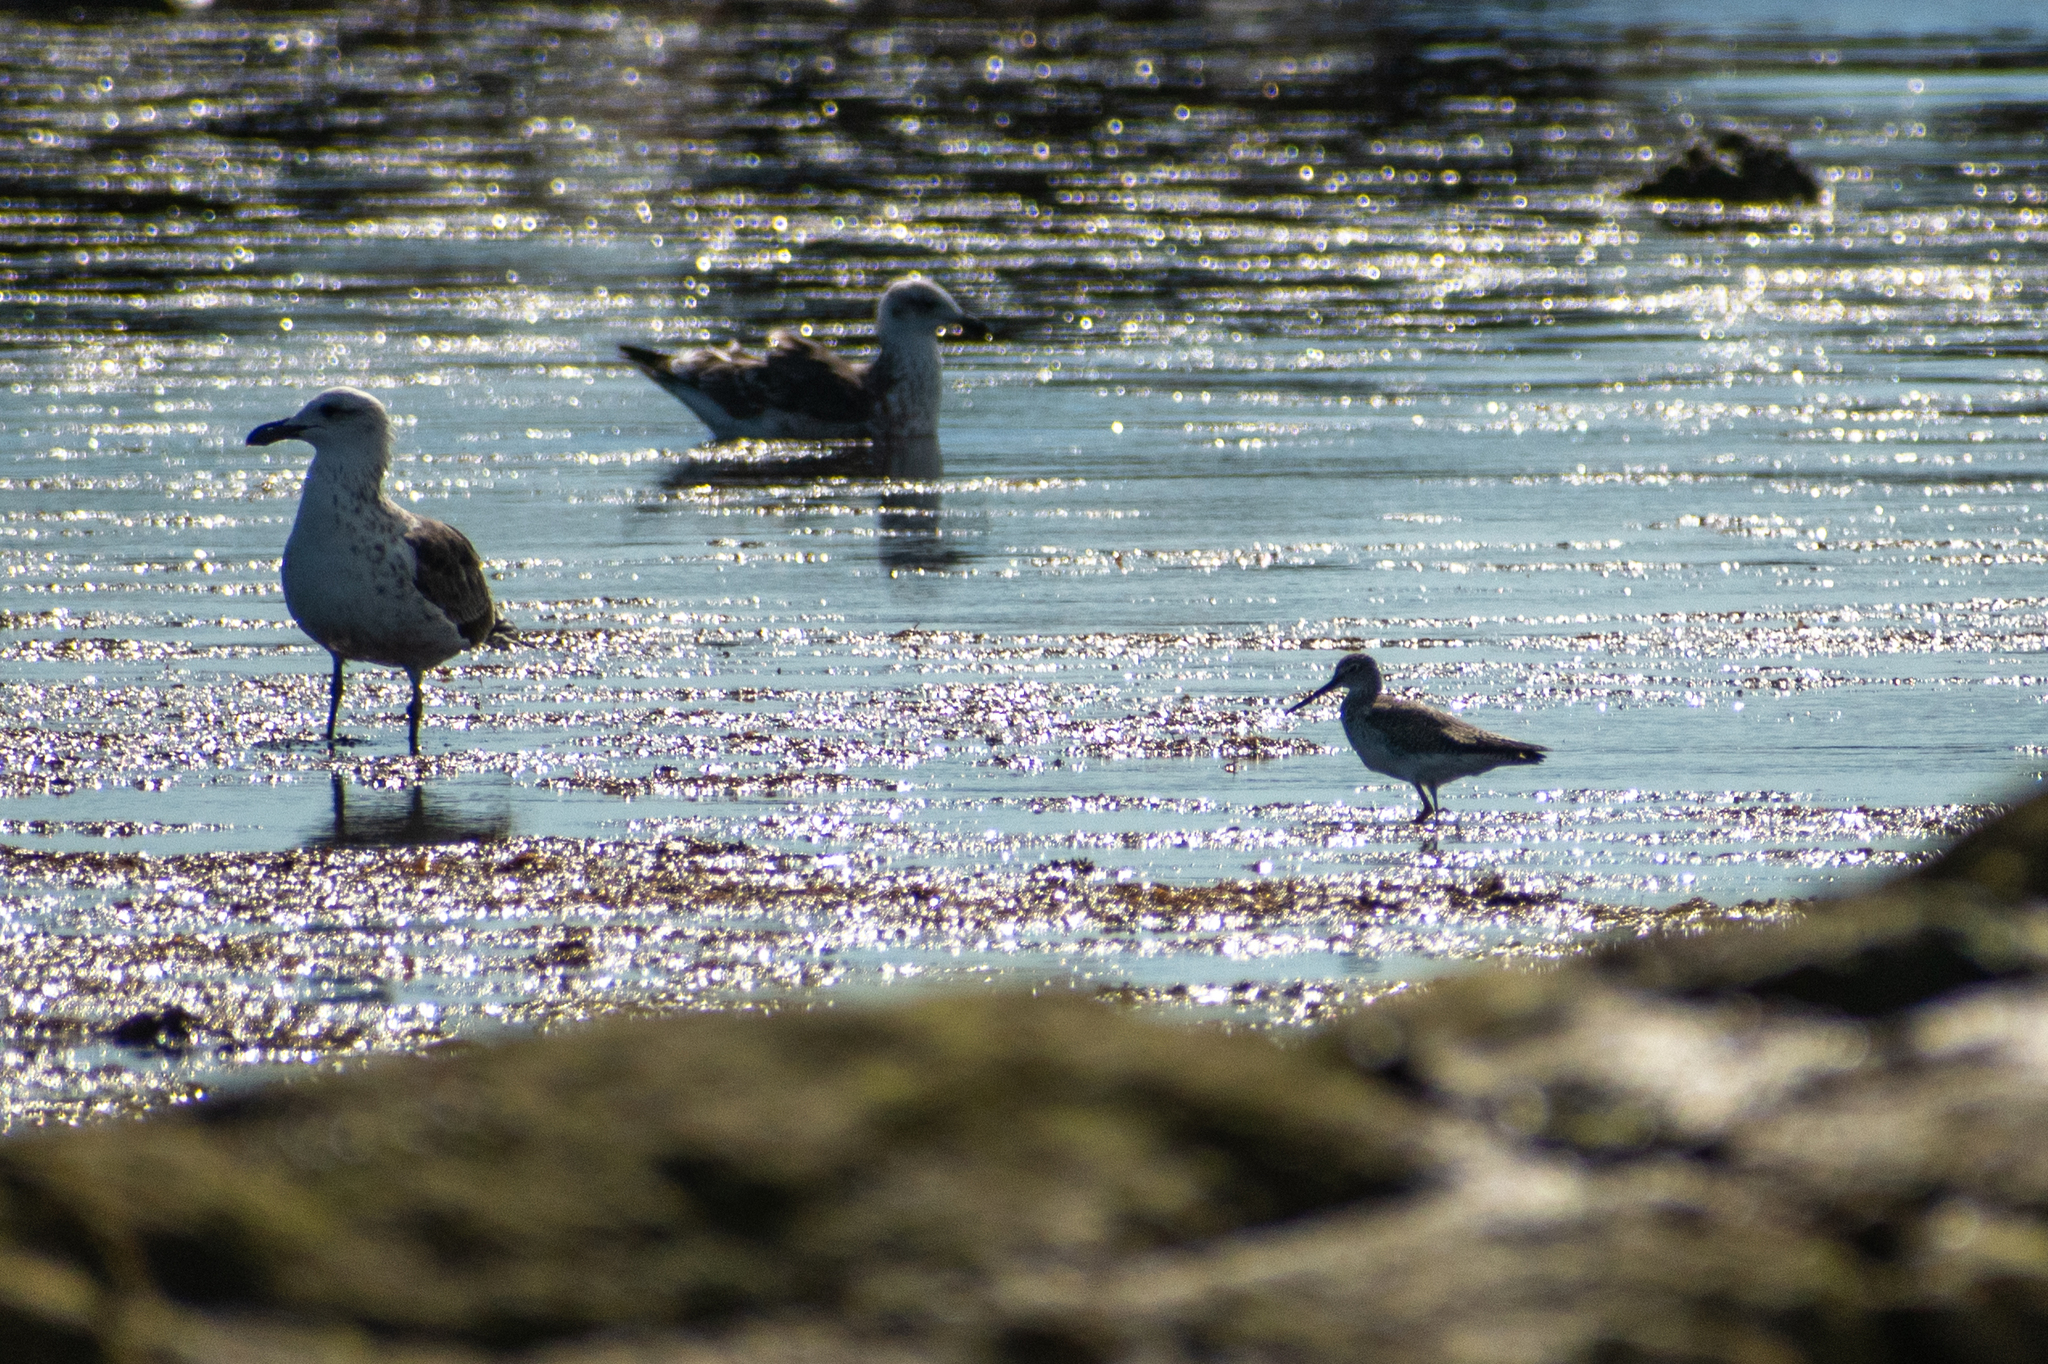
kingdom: Animalia
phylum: Chordata
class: Aves
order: Charadriiformes
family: Scolopacidae
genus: Tringa
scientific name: Tringa melanoleuca
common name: Greater yellowlegs
